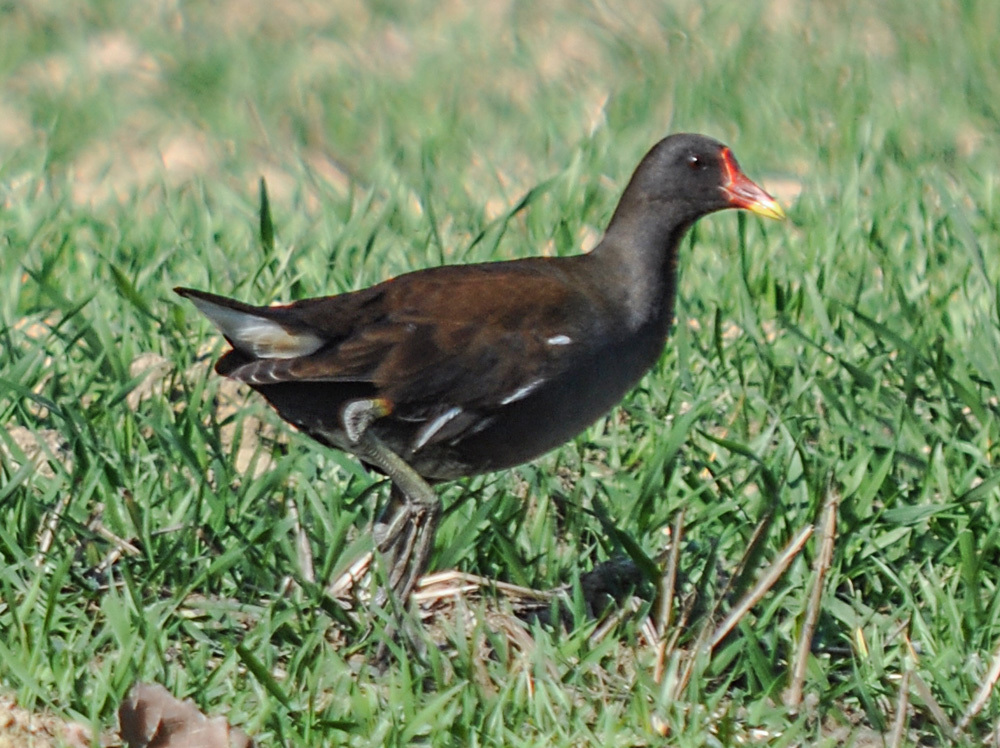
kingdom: Animalia
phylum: Chordata
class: Aves
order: Gruiformes
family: Rallidae
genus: Gallinula
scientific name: Gallinula chloropus
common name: Common moorhen
